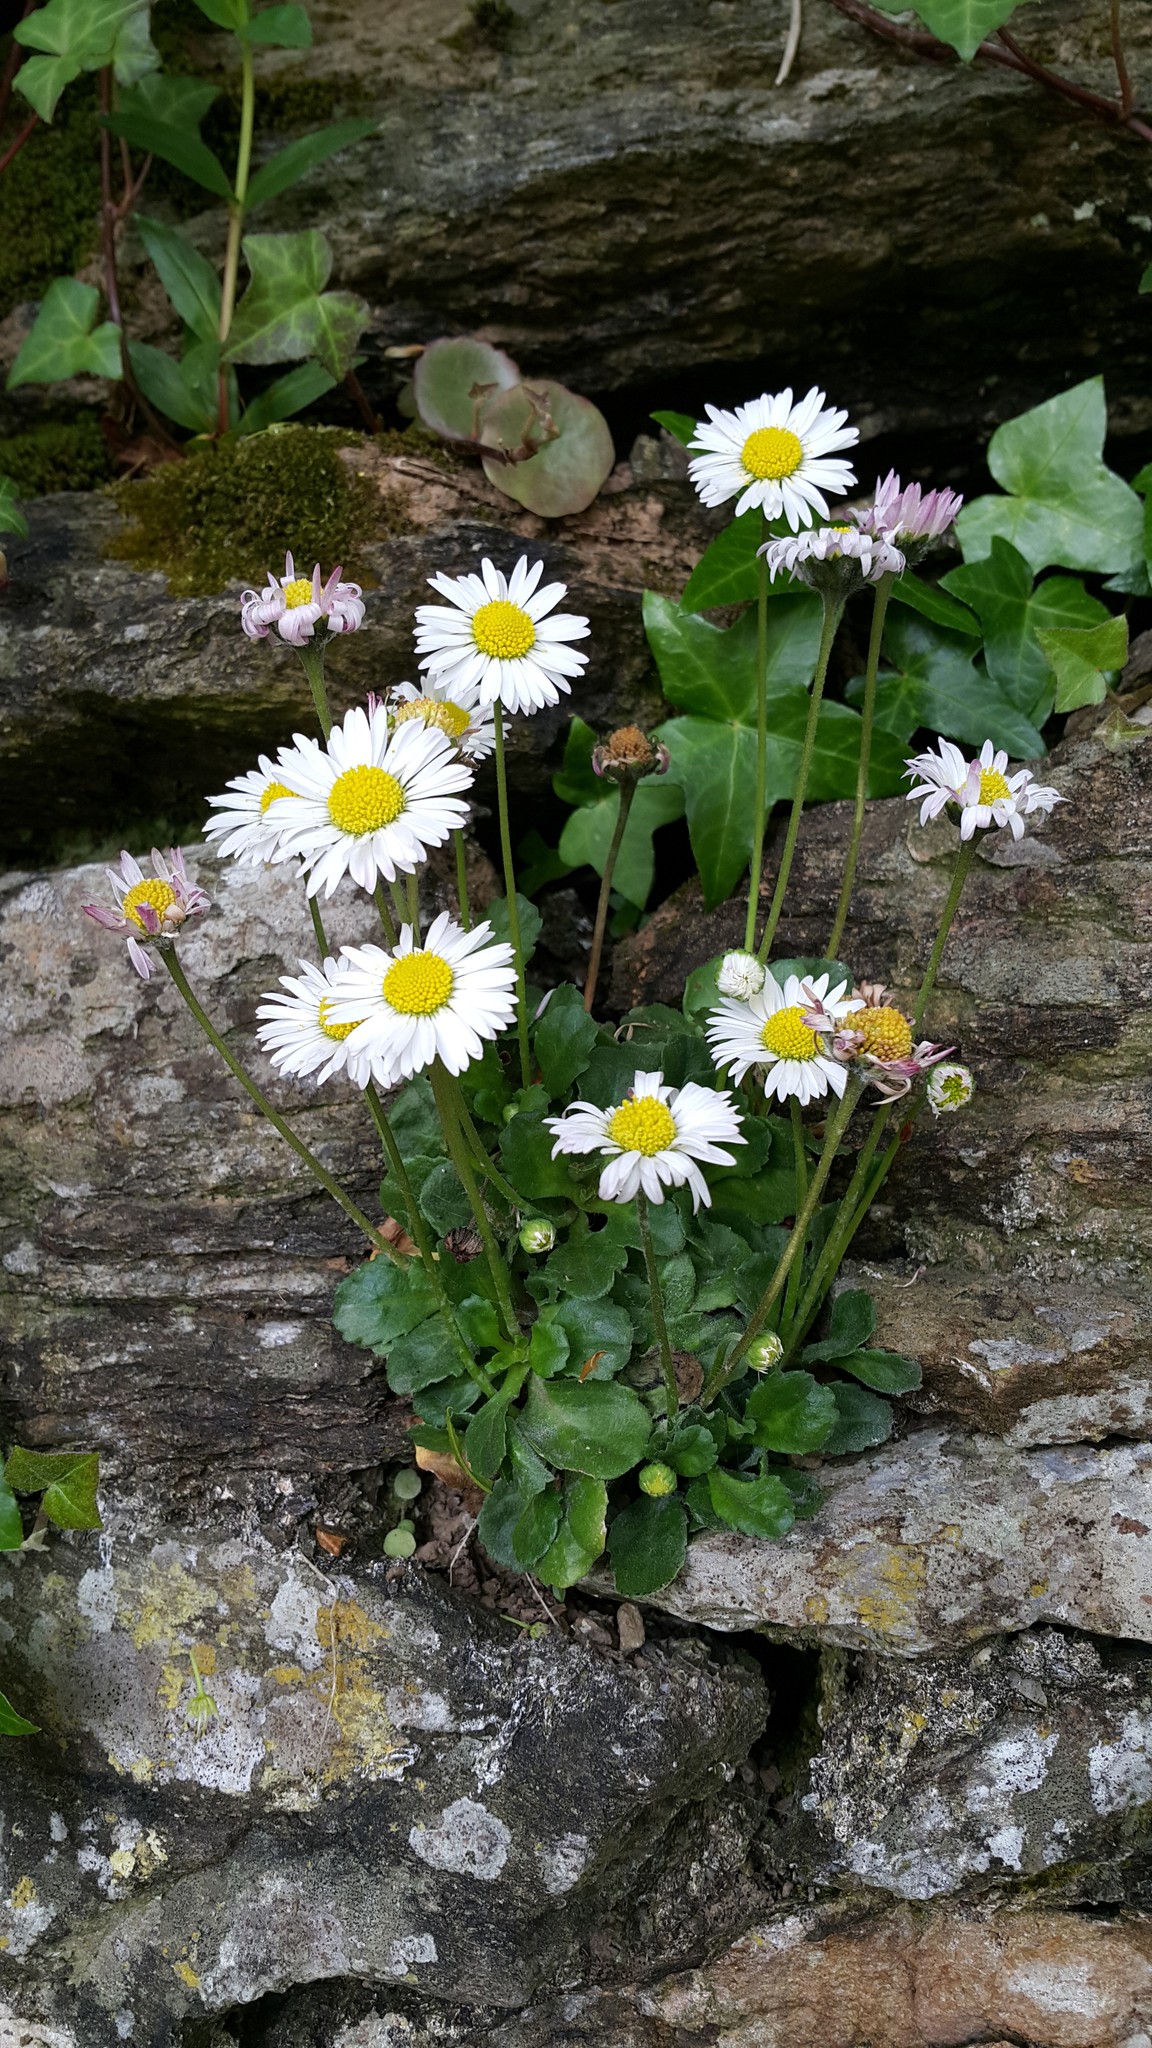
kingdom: Plantae
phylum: Tracheophyta
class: Magnoliopsida
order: Asterales
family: Asteraceae
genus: Bellis
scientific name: Bellis perennis
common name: Lawndaisy
